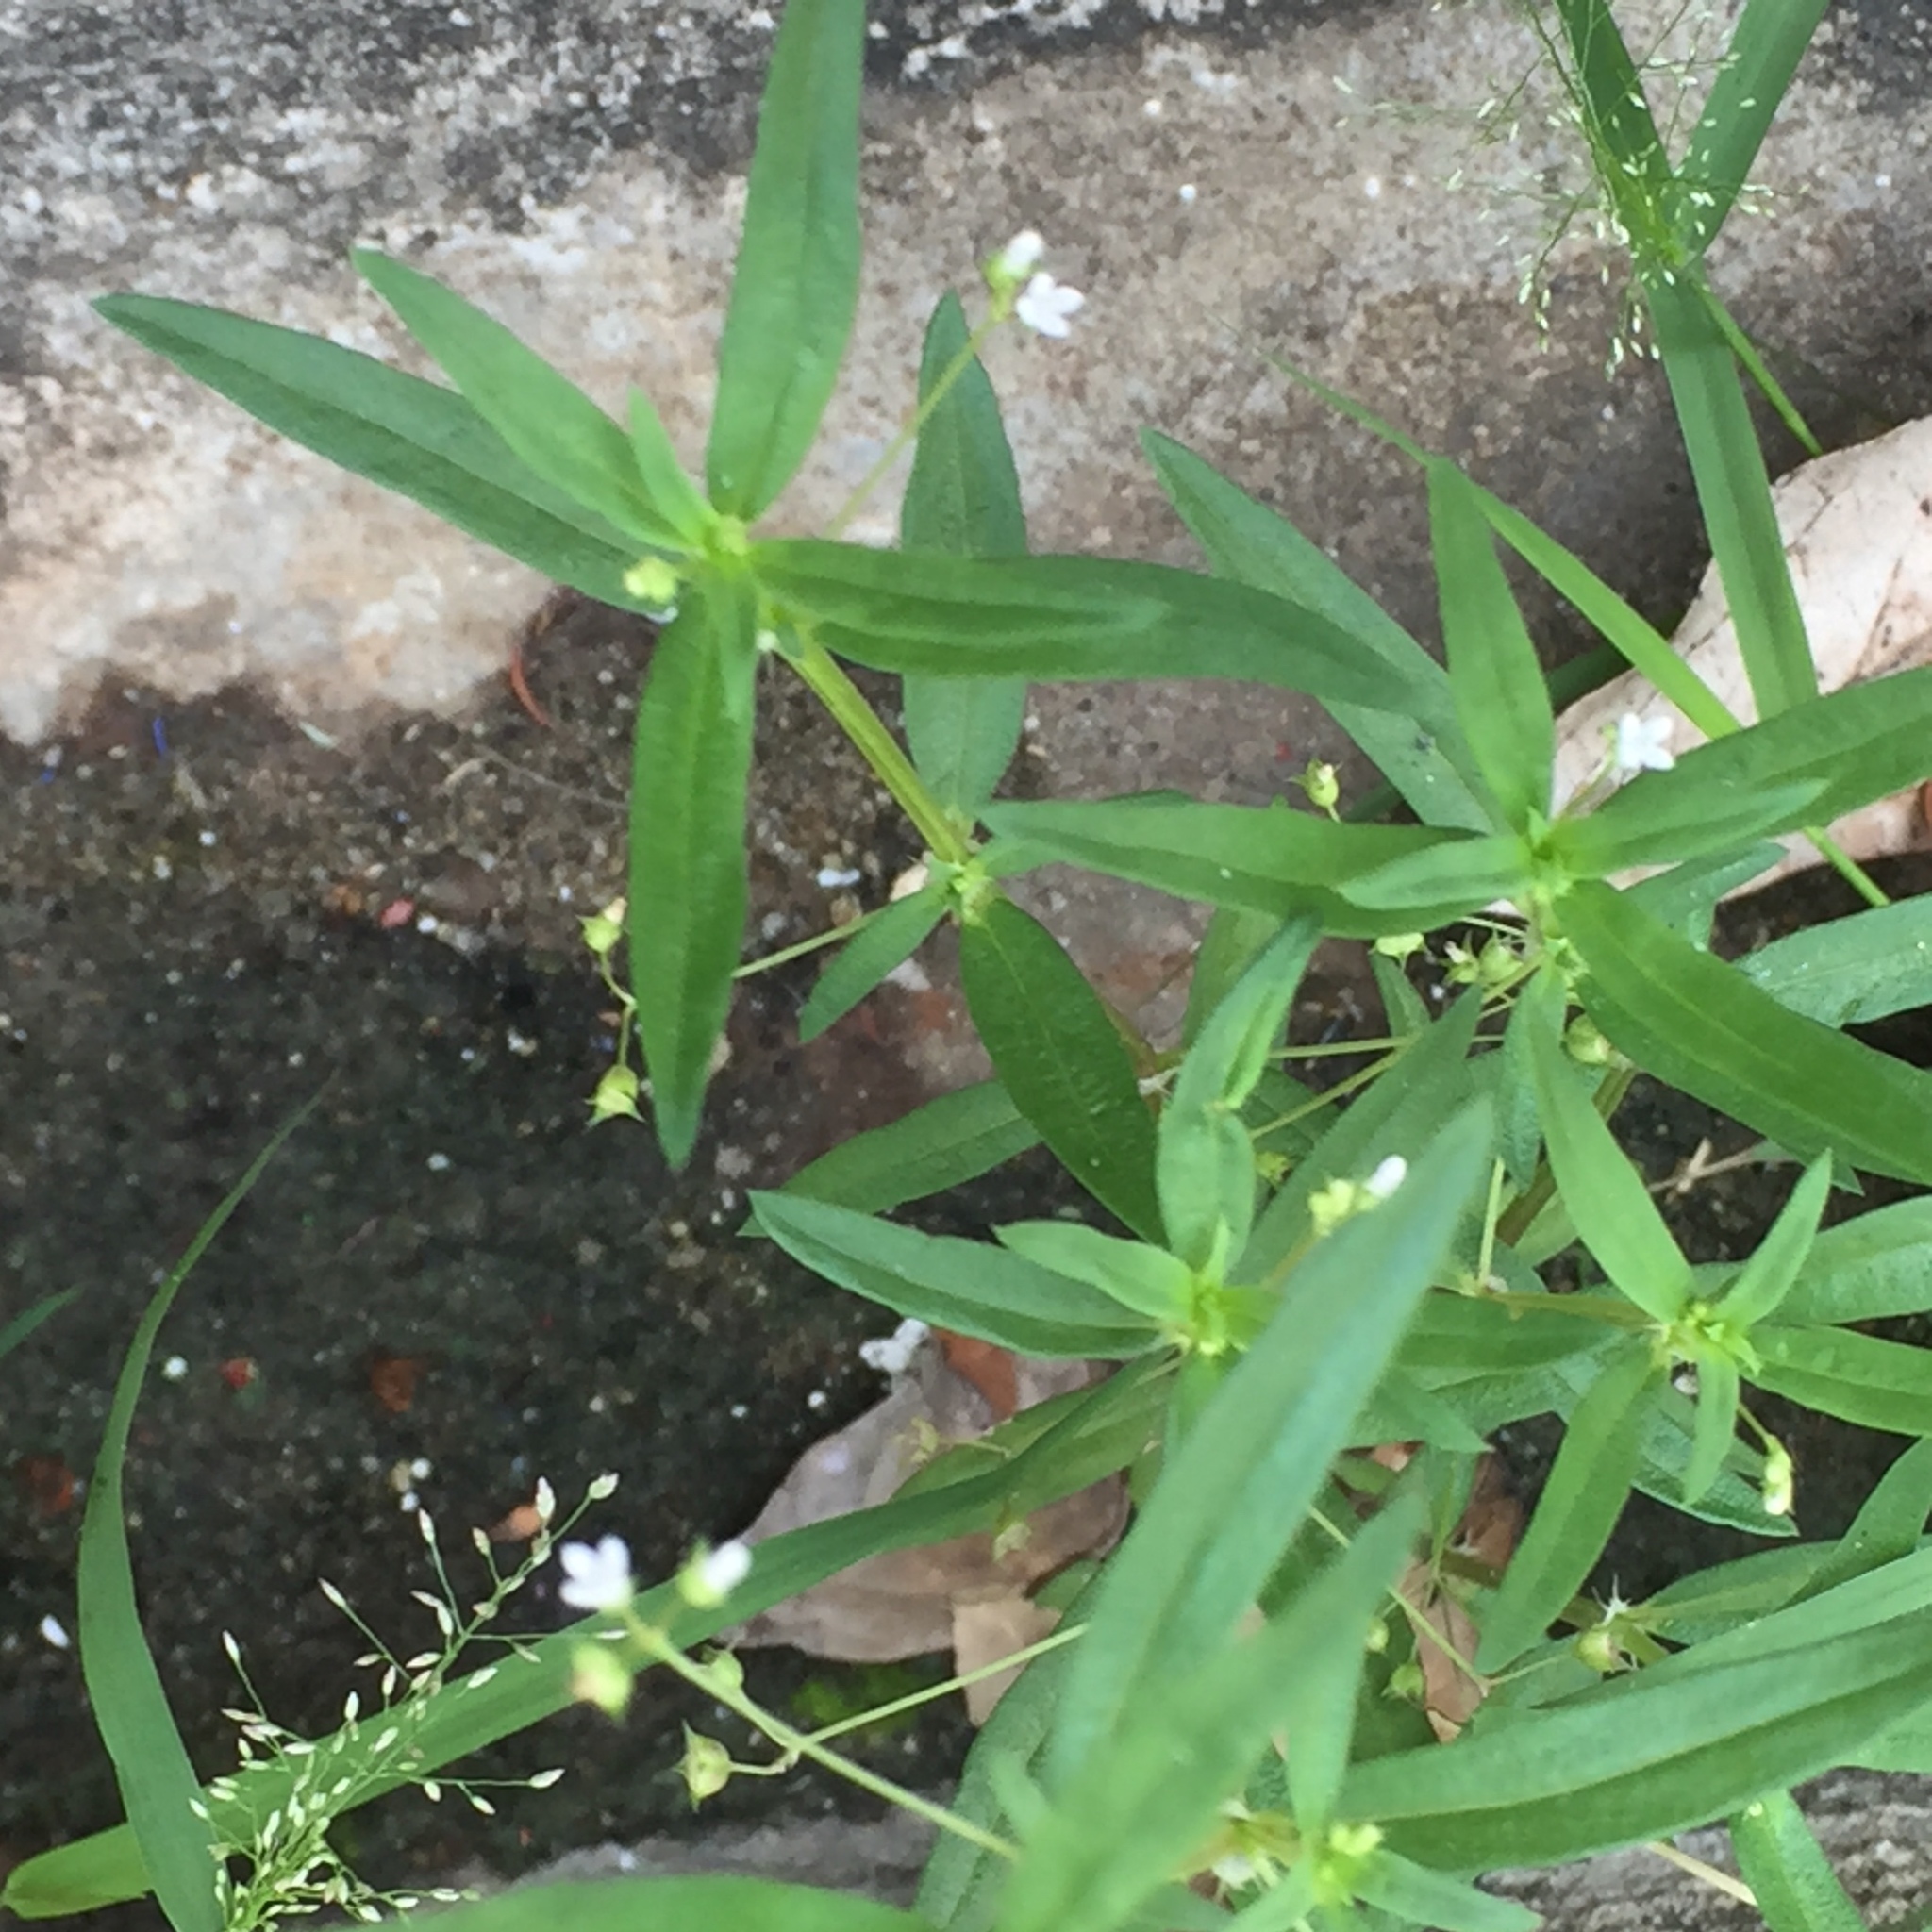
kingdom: Plantae
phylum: Tracheophyta
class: Magnoliopsida
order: Gentianales
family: Rubiaceae
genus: Oldenlandia
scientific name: Oldenlandia corymbosa
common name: Flat-top mille graines
